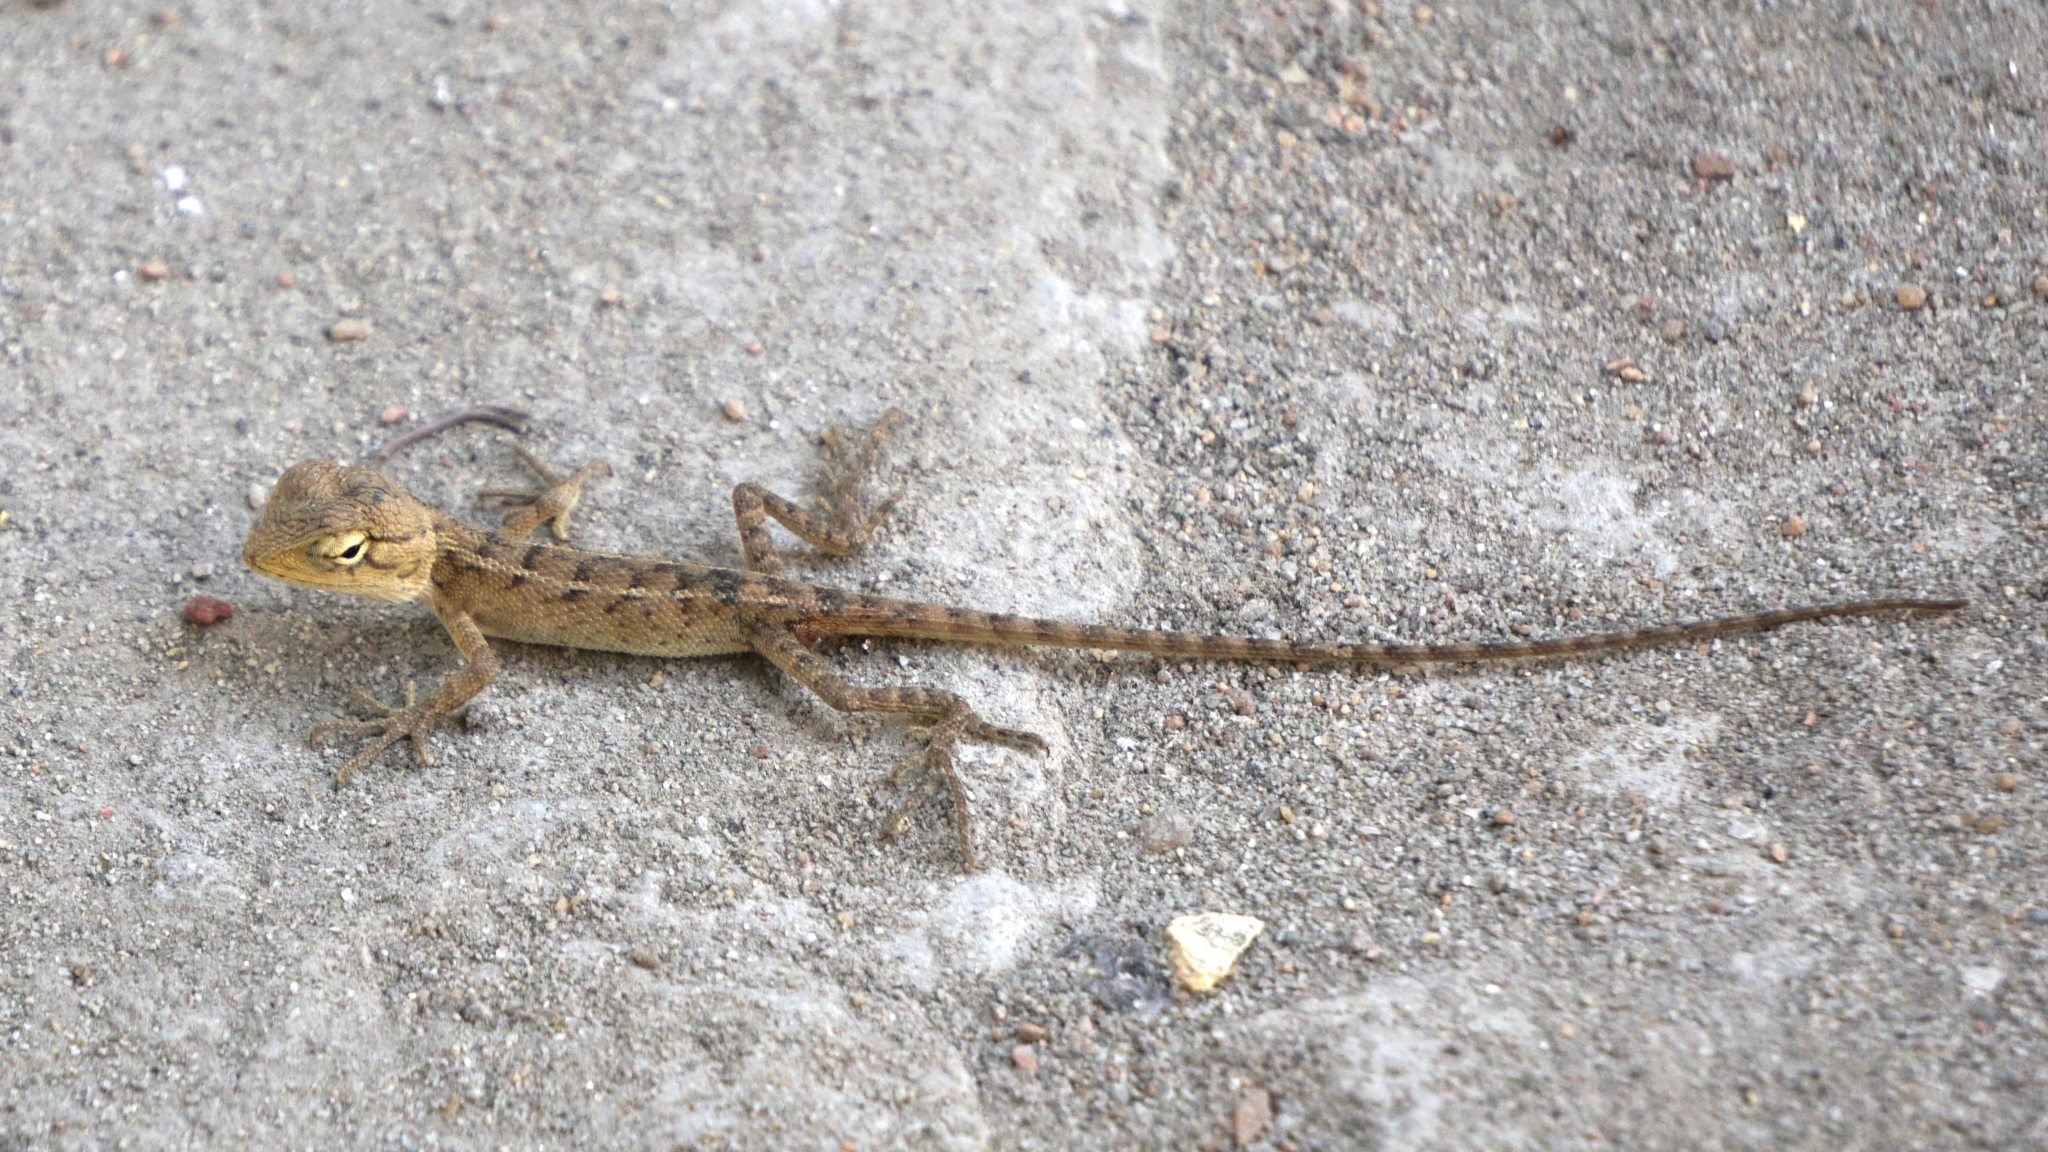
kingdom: Animalia
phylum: Chordata
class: Squamata
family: Agamidae
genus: Calotes
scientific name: Calotes versicolor
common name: Oriental garden lizard
